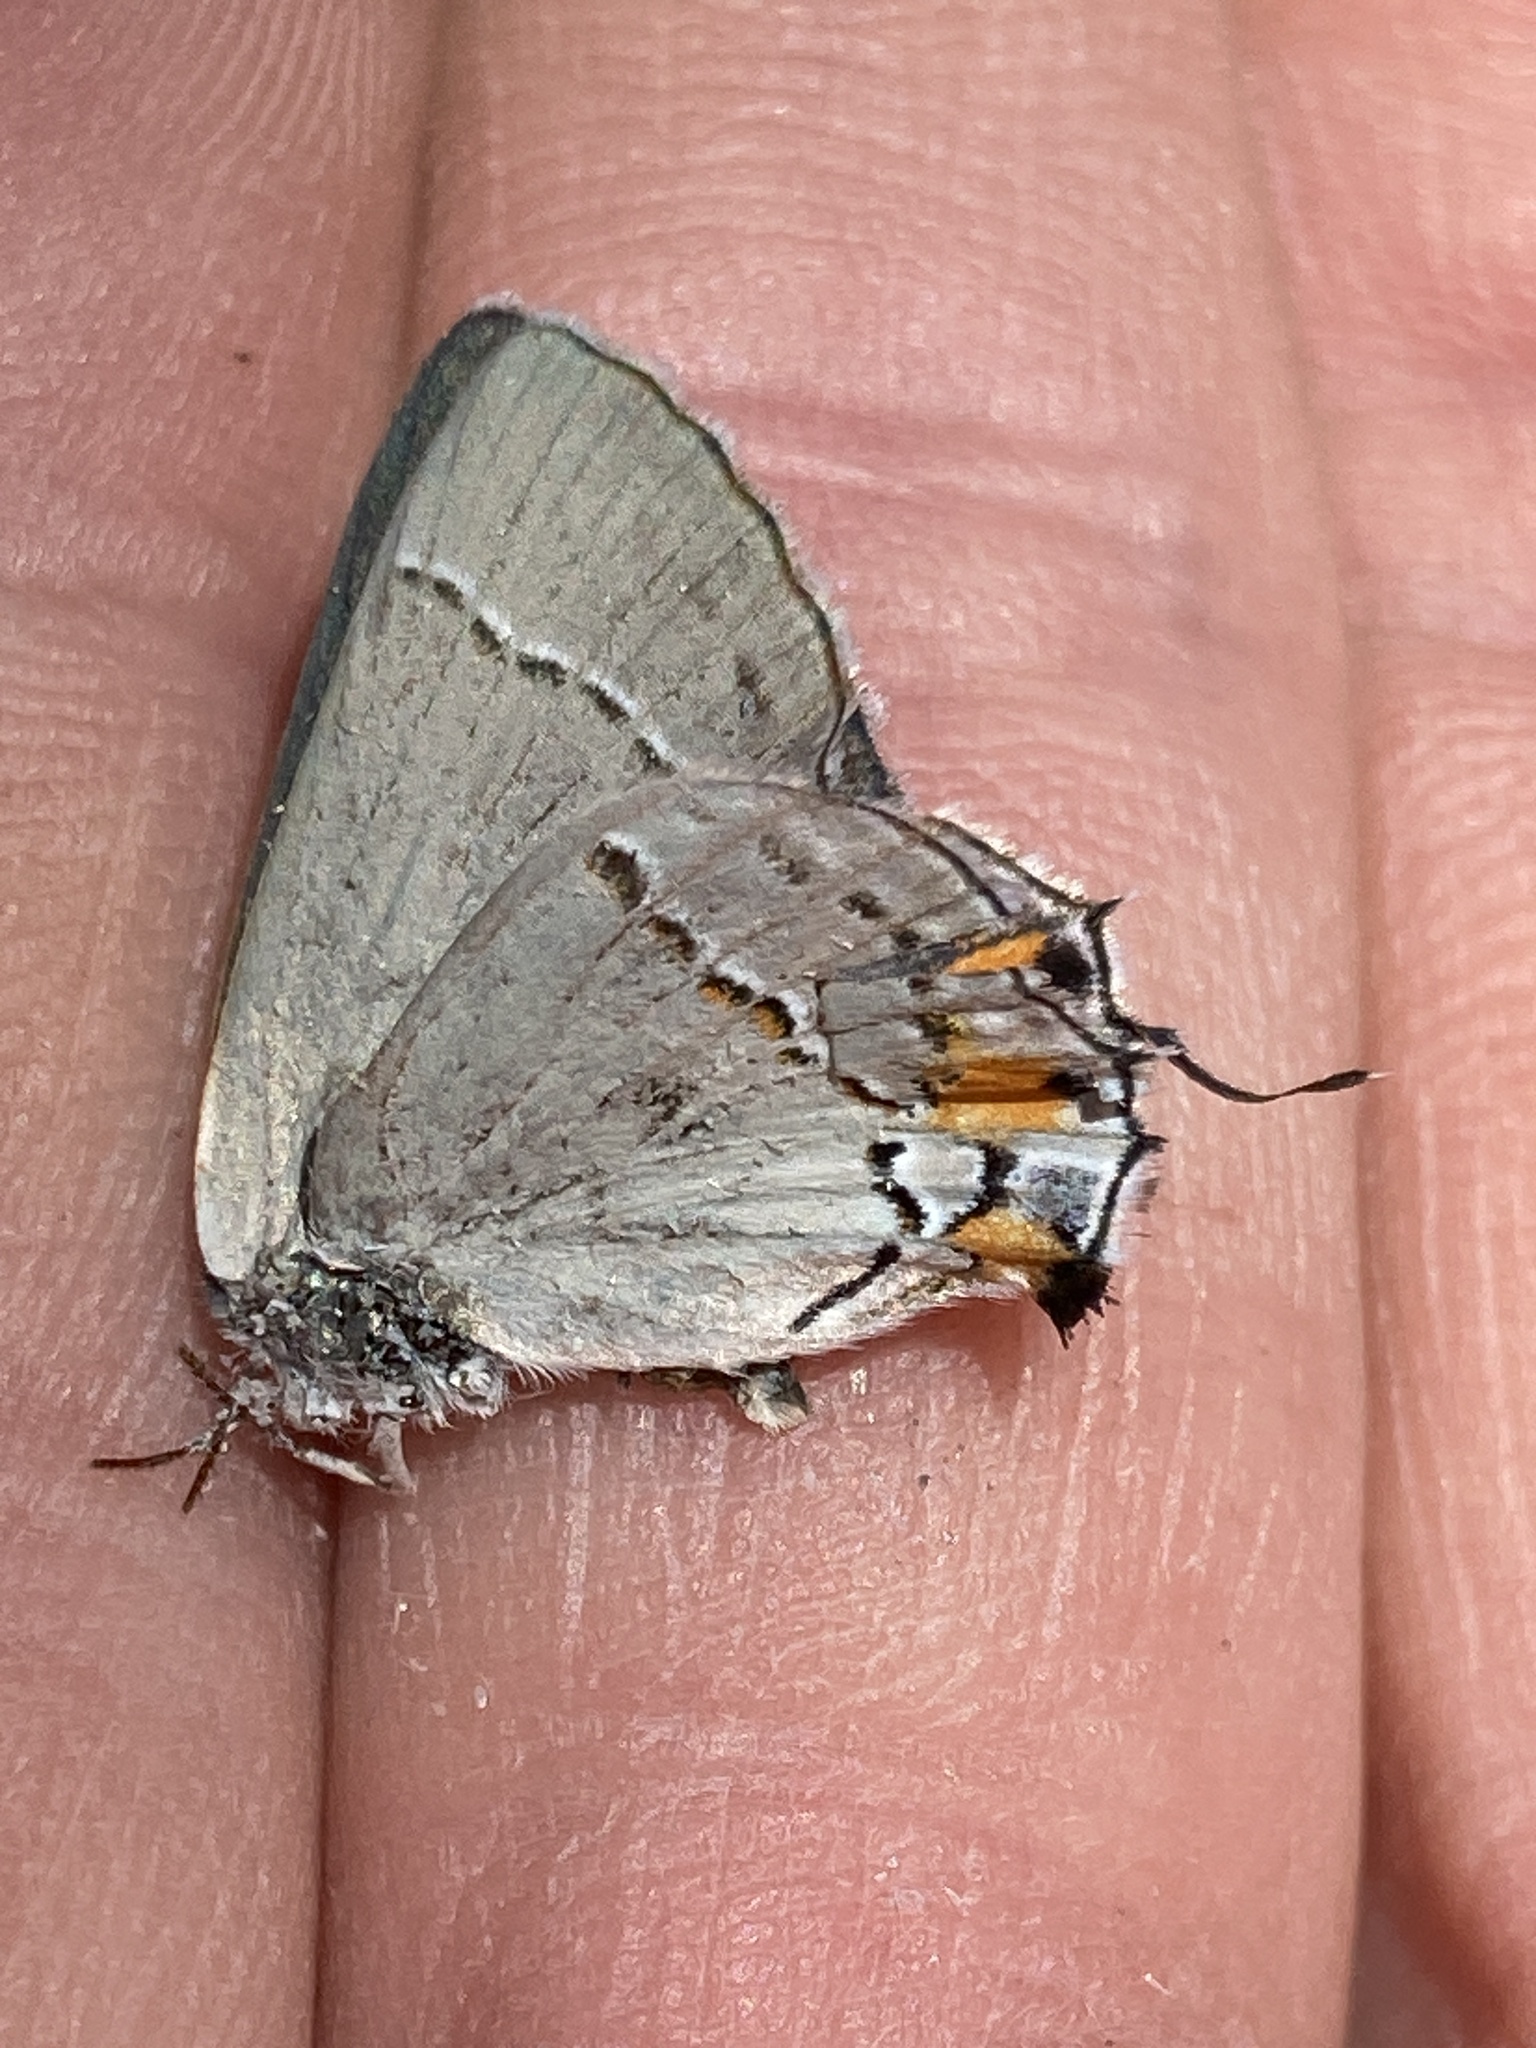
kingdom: Animalia
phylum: Arthropoda
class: Insecta
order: Lepidoptera
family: Lycaenidae
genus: Strymon
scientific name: Strymon melinus
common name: Gray hairstreak
